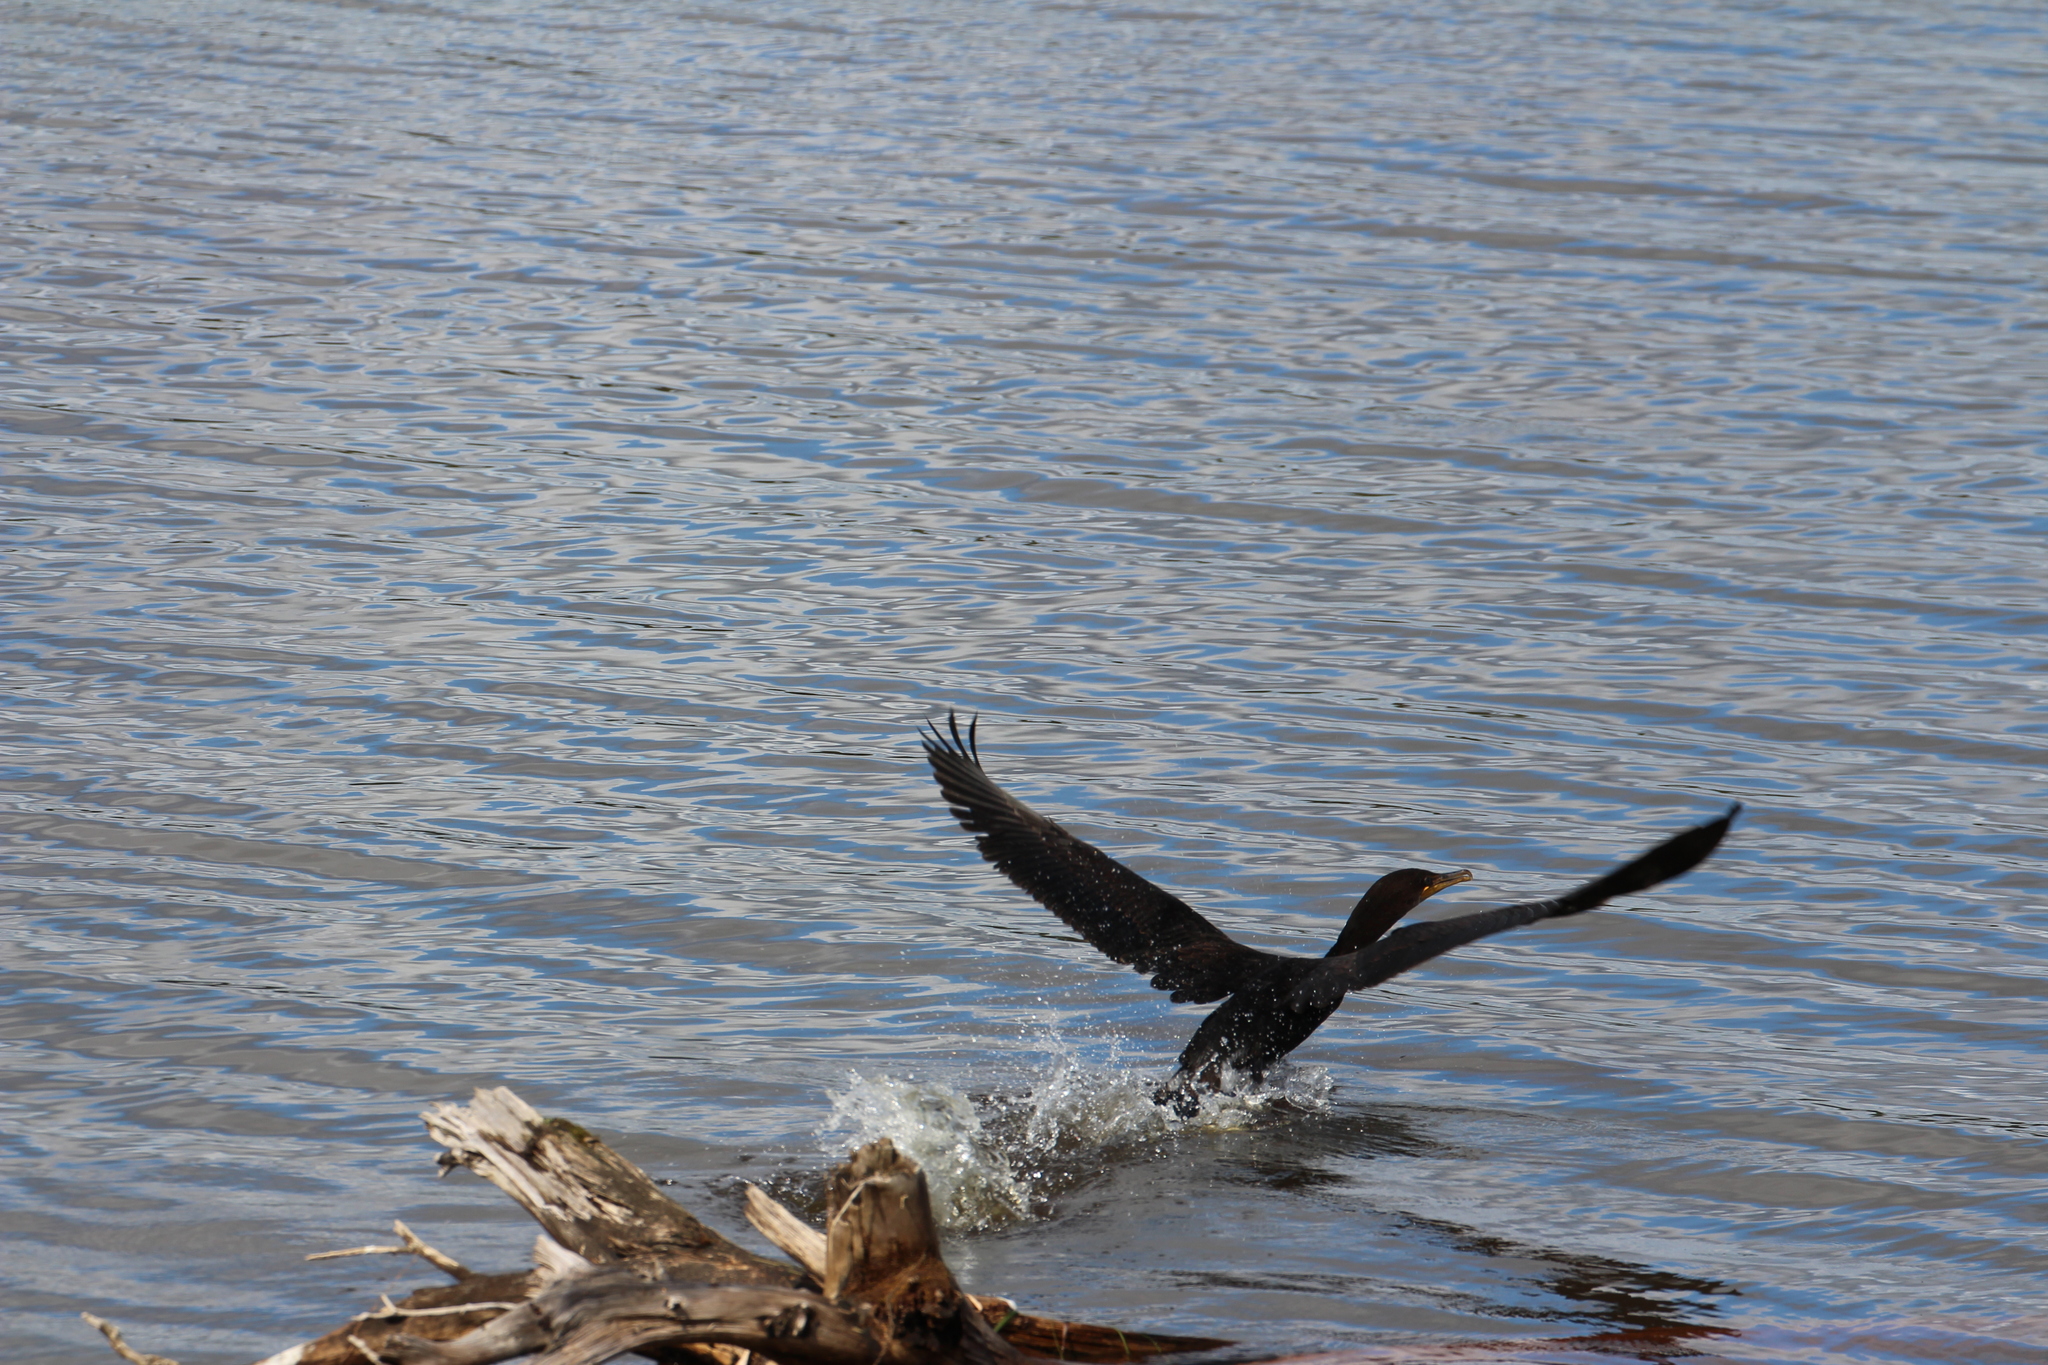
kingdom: Animalia
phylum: Chordata
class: Aves
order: Suliformes
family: Phalacrocoracidae
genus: Phalacrocorax
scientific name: Phalacrocorax auritus
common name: Double-crested cormorant
